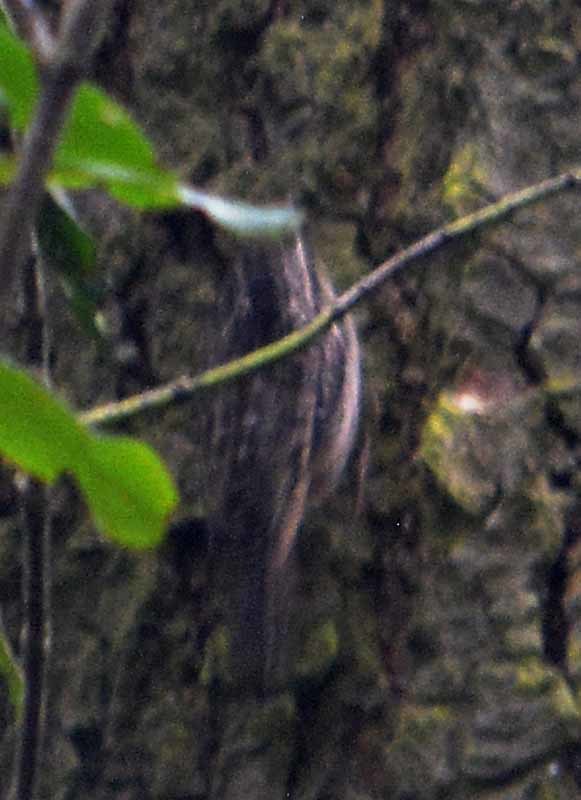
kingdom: Animalia
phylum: Chordata
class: Aves
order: Passeriformes
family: Certhiidae
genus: Certhia
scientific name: Certhia americana
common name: Brown creeper
